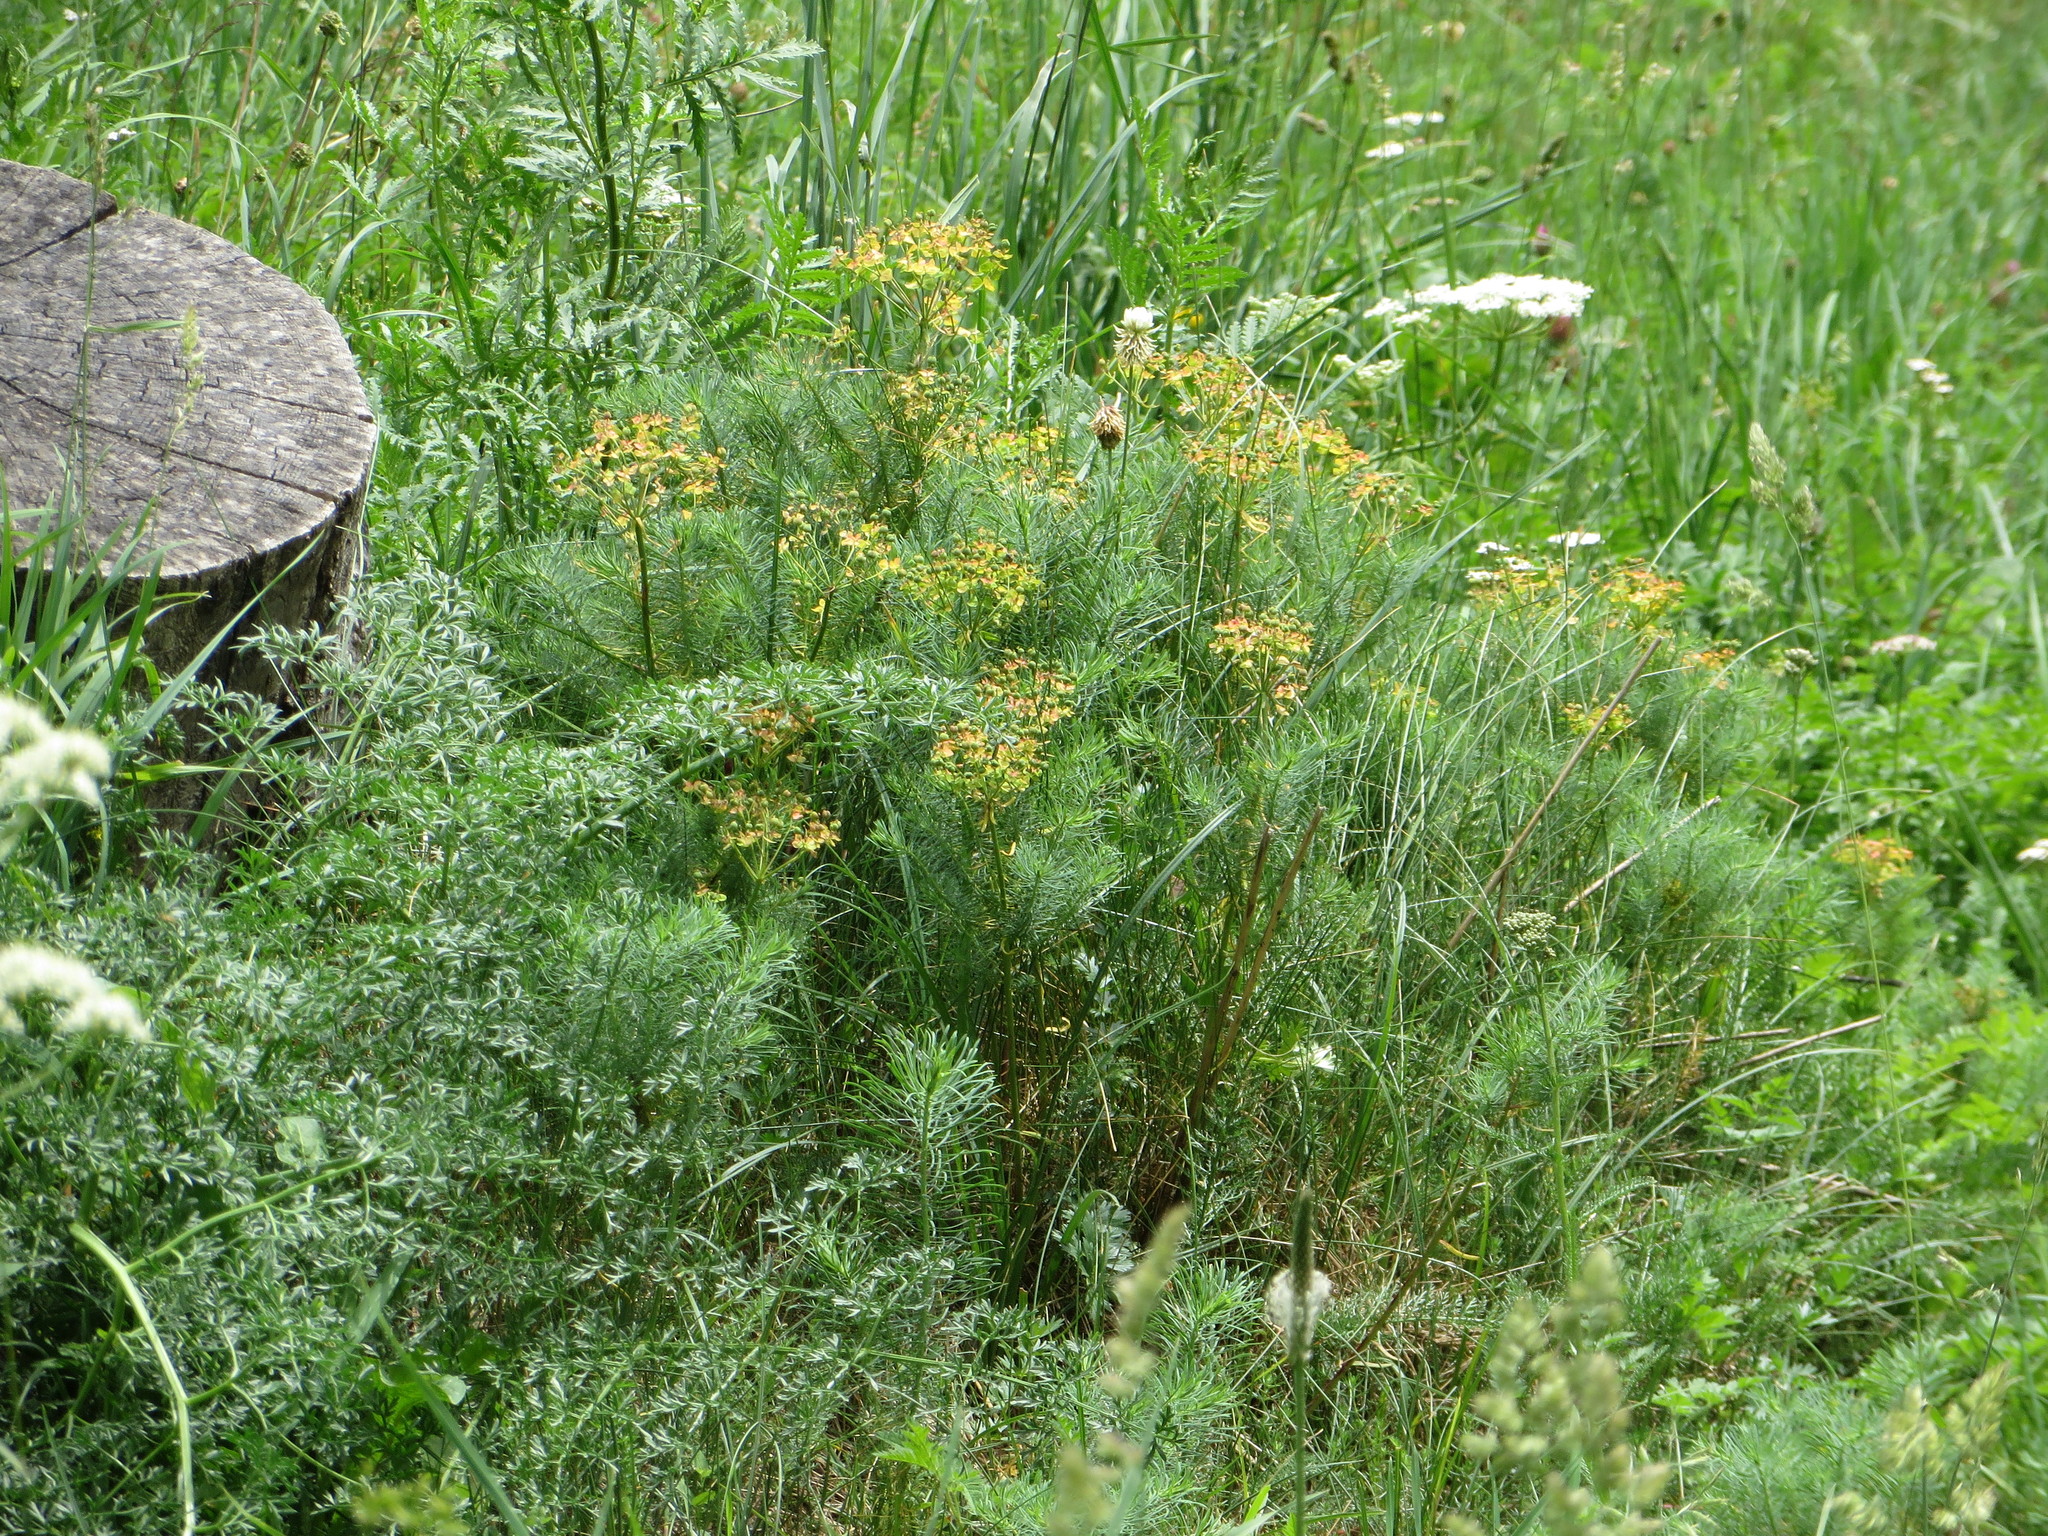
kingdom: Plantae
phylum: Tracheophyta
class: Magnoliopsida
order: Malpighiales
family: Euphorbiaceae
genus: Euphorbia
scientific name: Euphorbia cyparissias
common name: Cypress spurge
